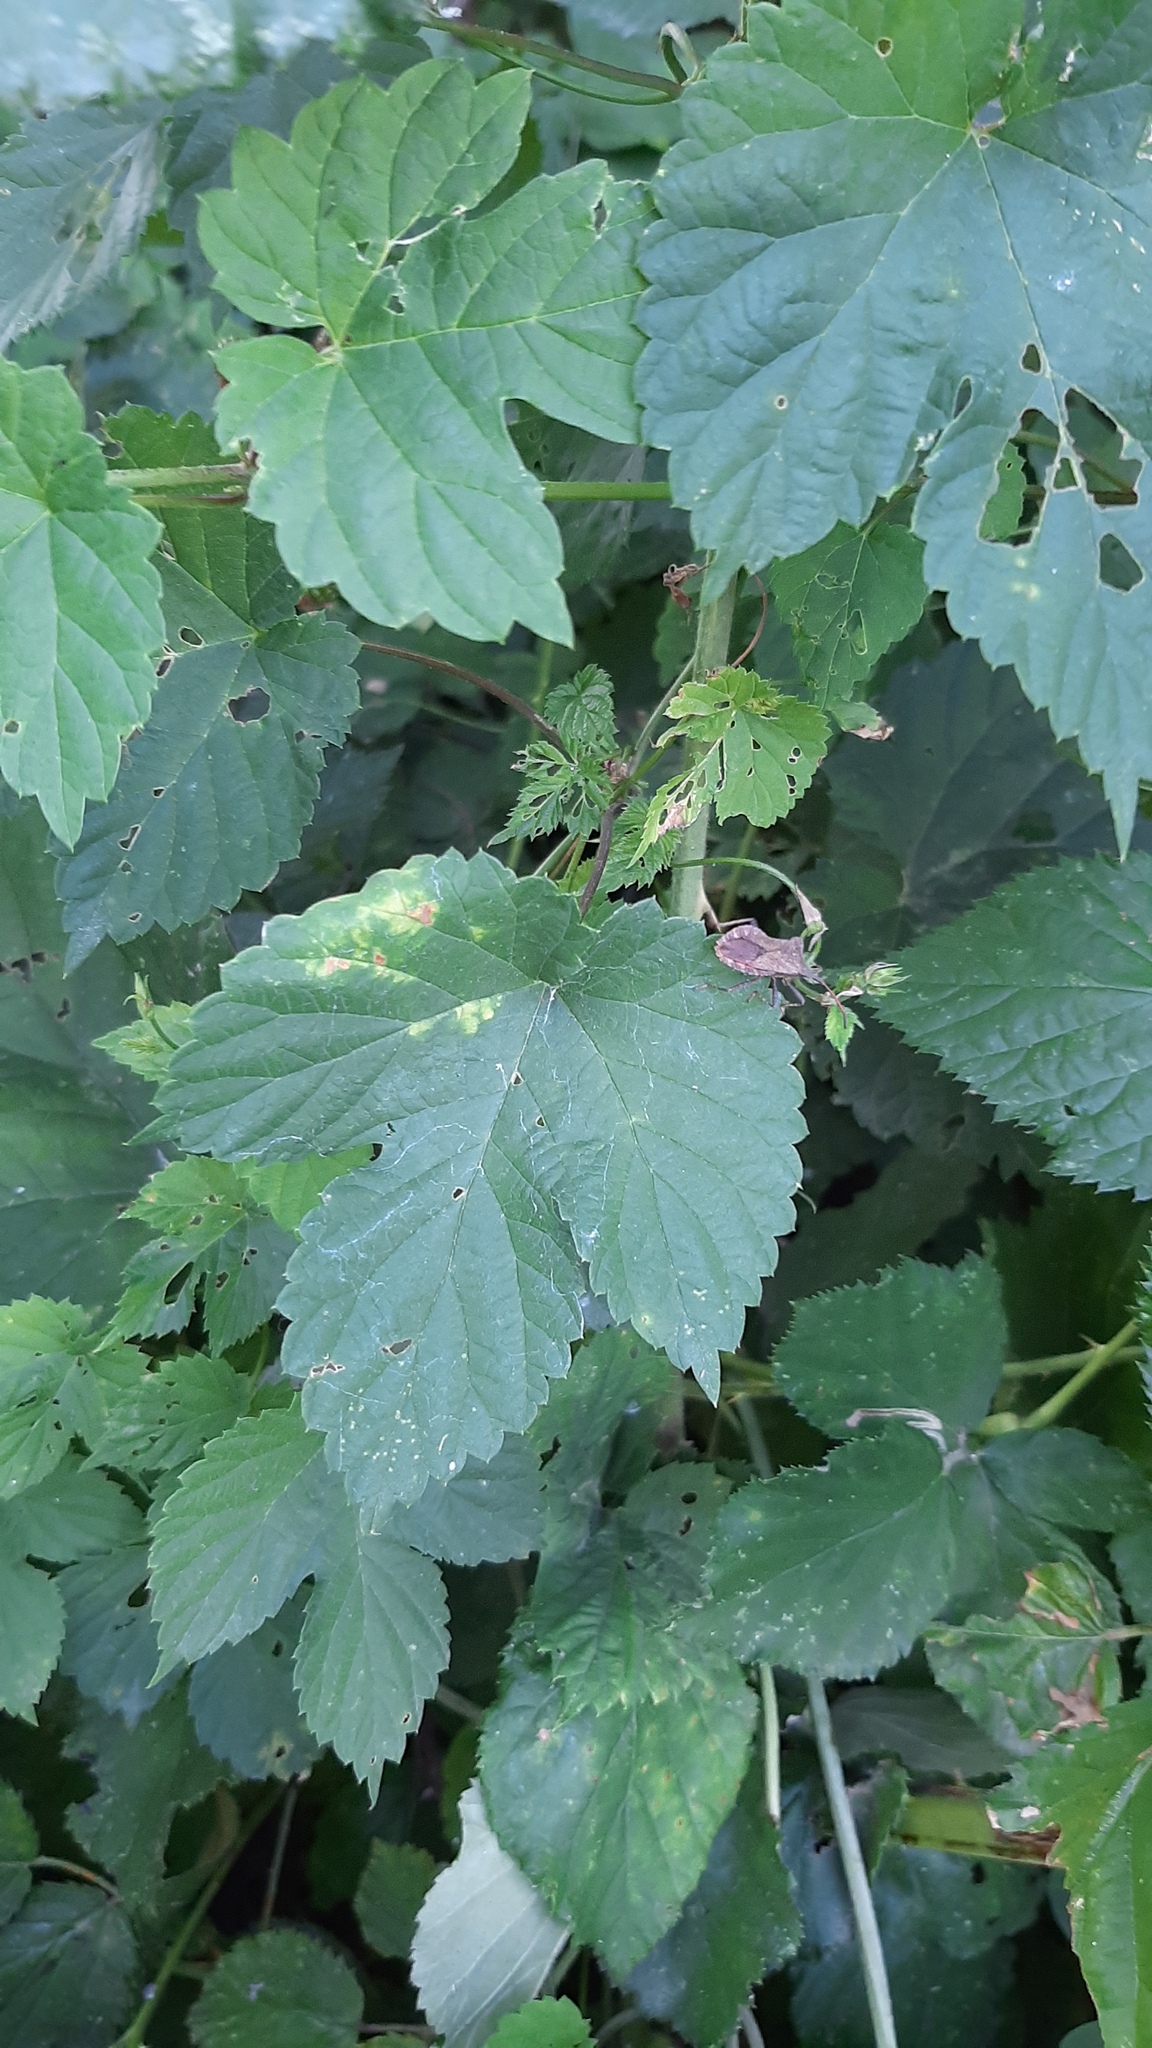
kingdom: Animalia
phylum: Arthropoda
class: Insecta
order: Hemiptera
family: Coreidae
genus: Coreus
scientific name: Coreus marginatus
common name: Dock bug
